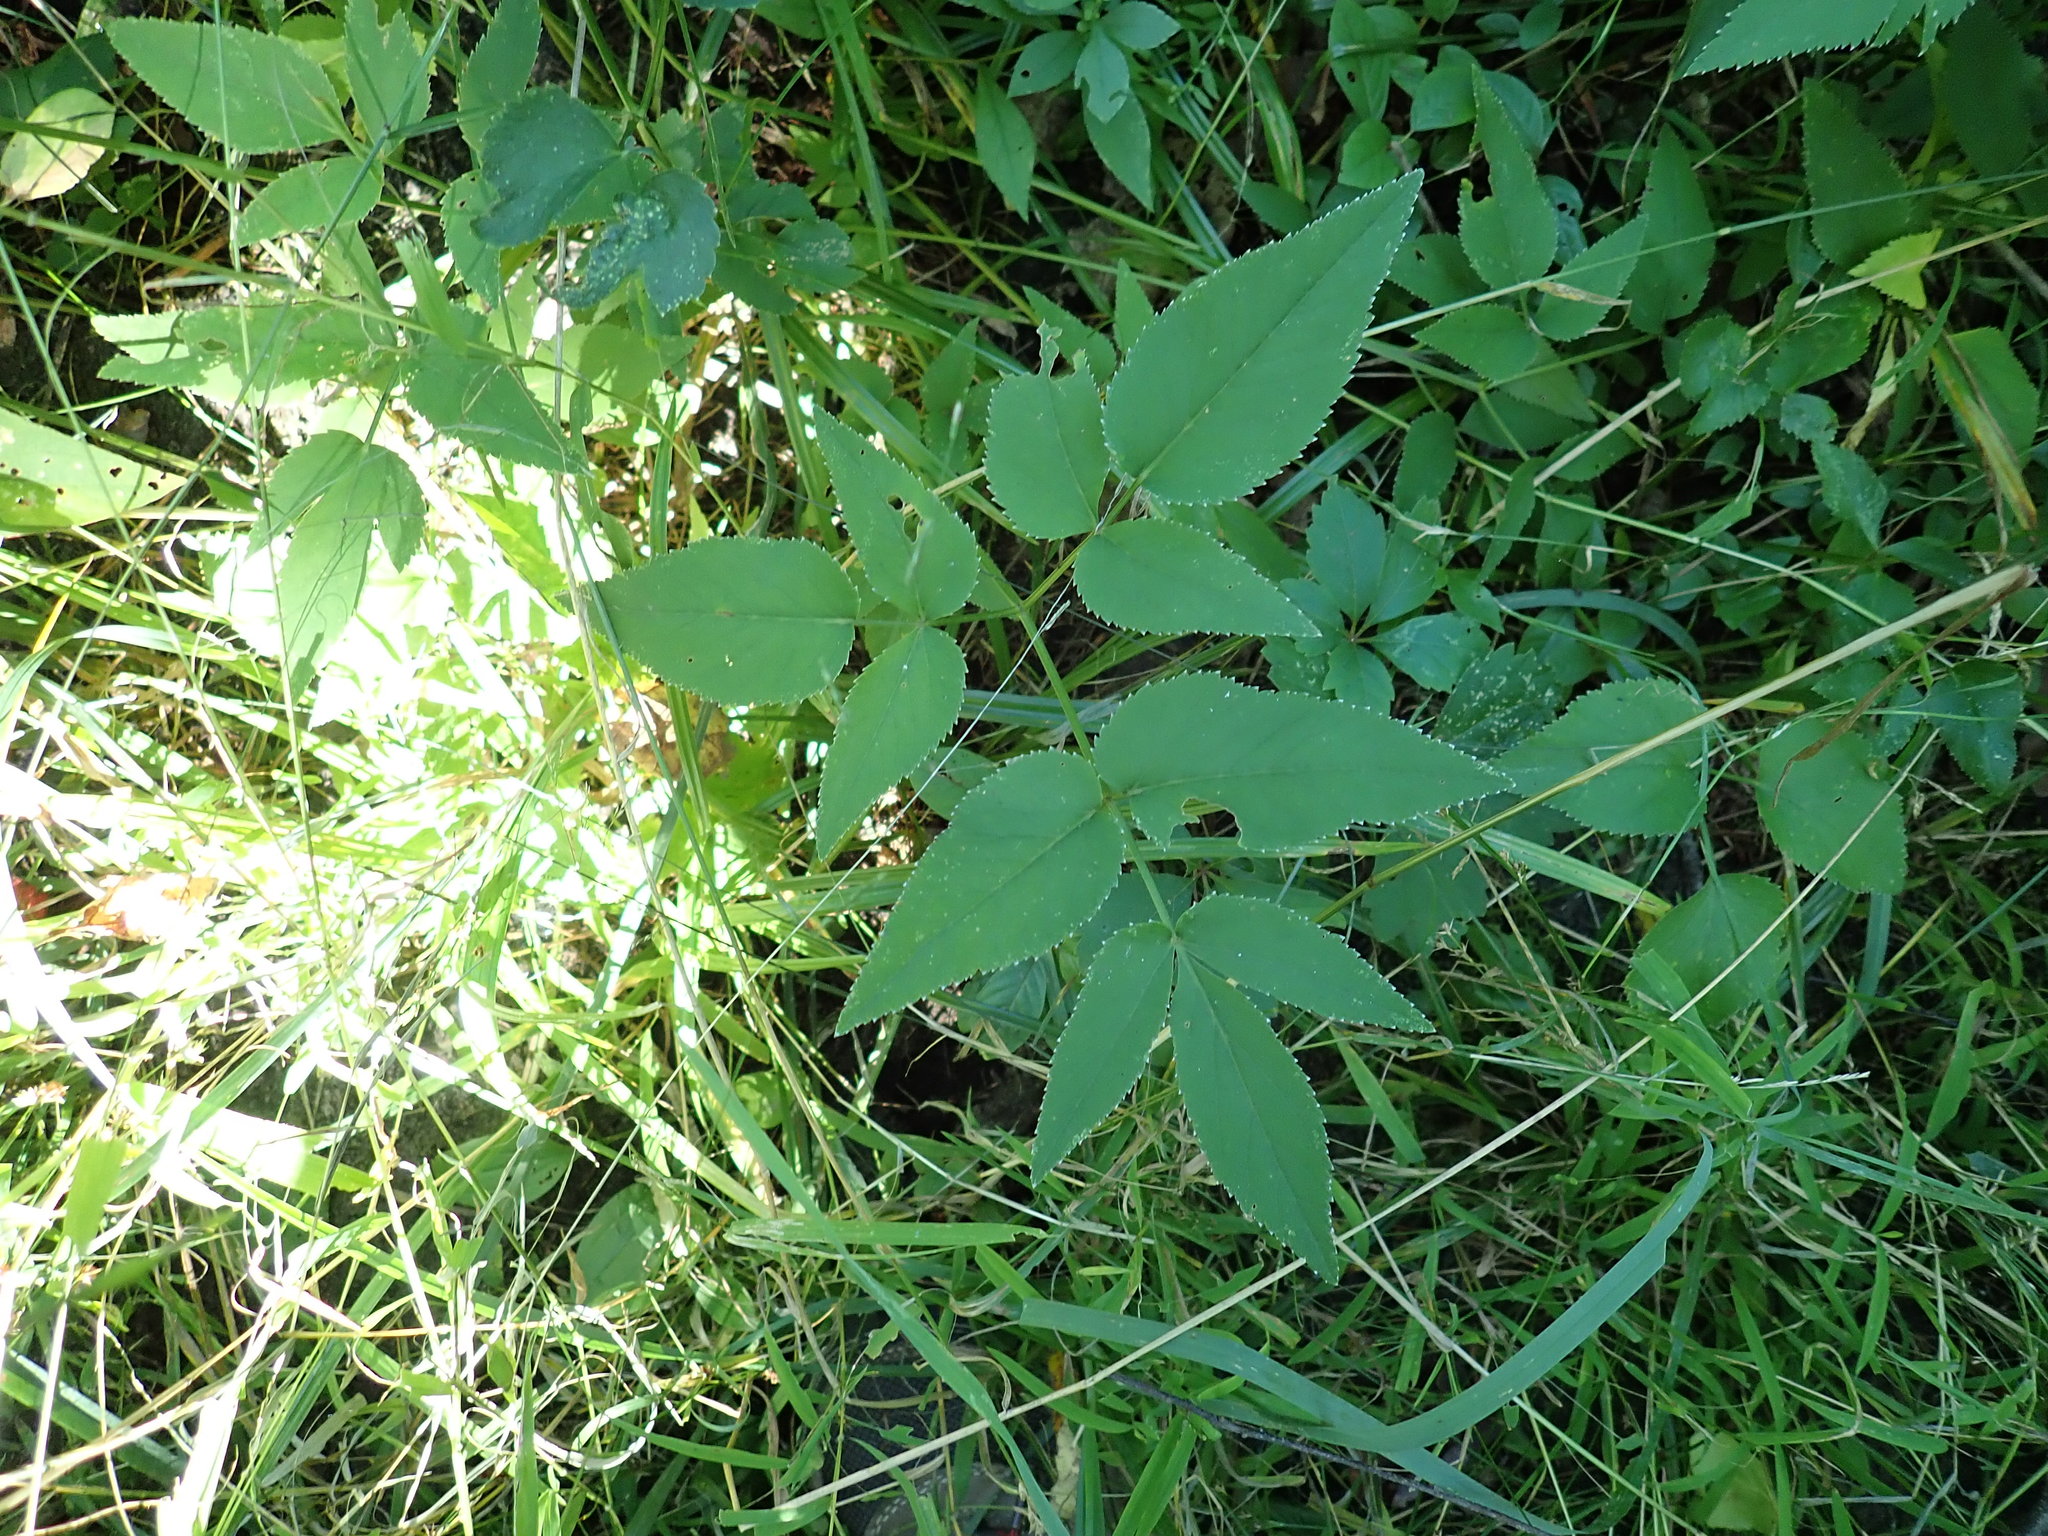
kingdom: Plantae
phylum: Tracheophyta
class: Magnoliopsida
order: Apiales
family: Apiaceae
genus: Zizia
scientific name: Zizia aurea
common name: Golden alexanders
